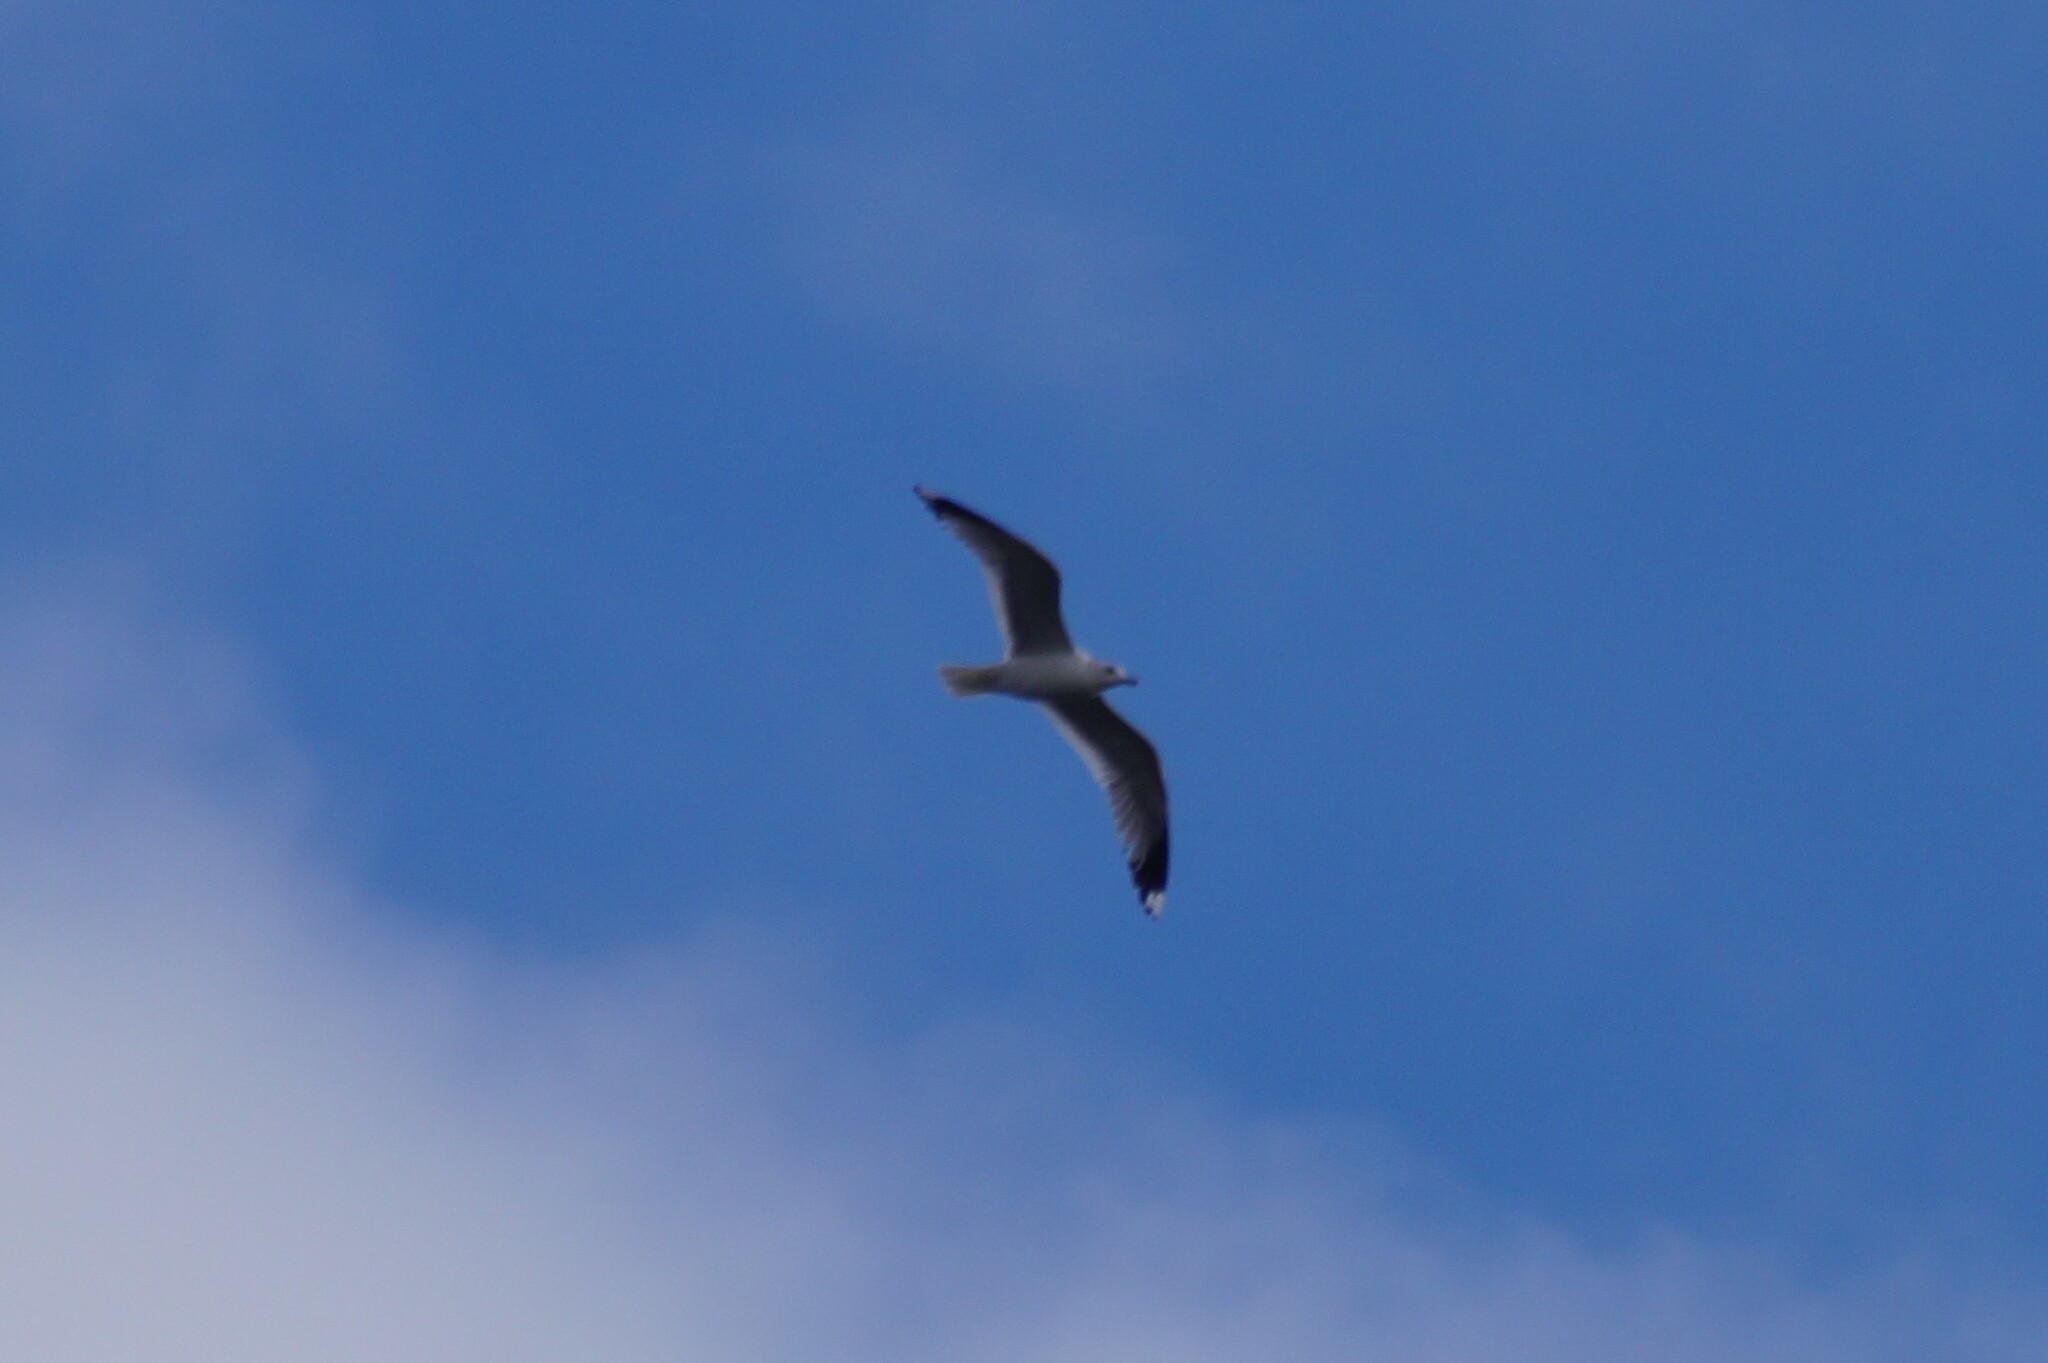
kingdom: Animalia
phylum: Chordata
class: Aves
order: Charadriiformes
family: Laridae
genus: Larus
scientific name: Larus canus
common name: Mew gull
